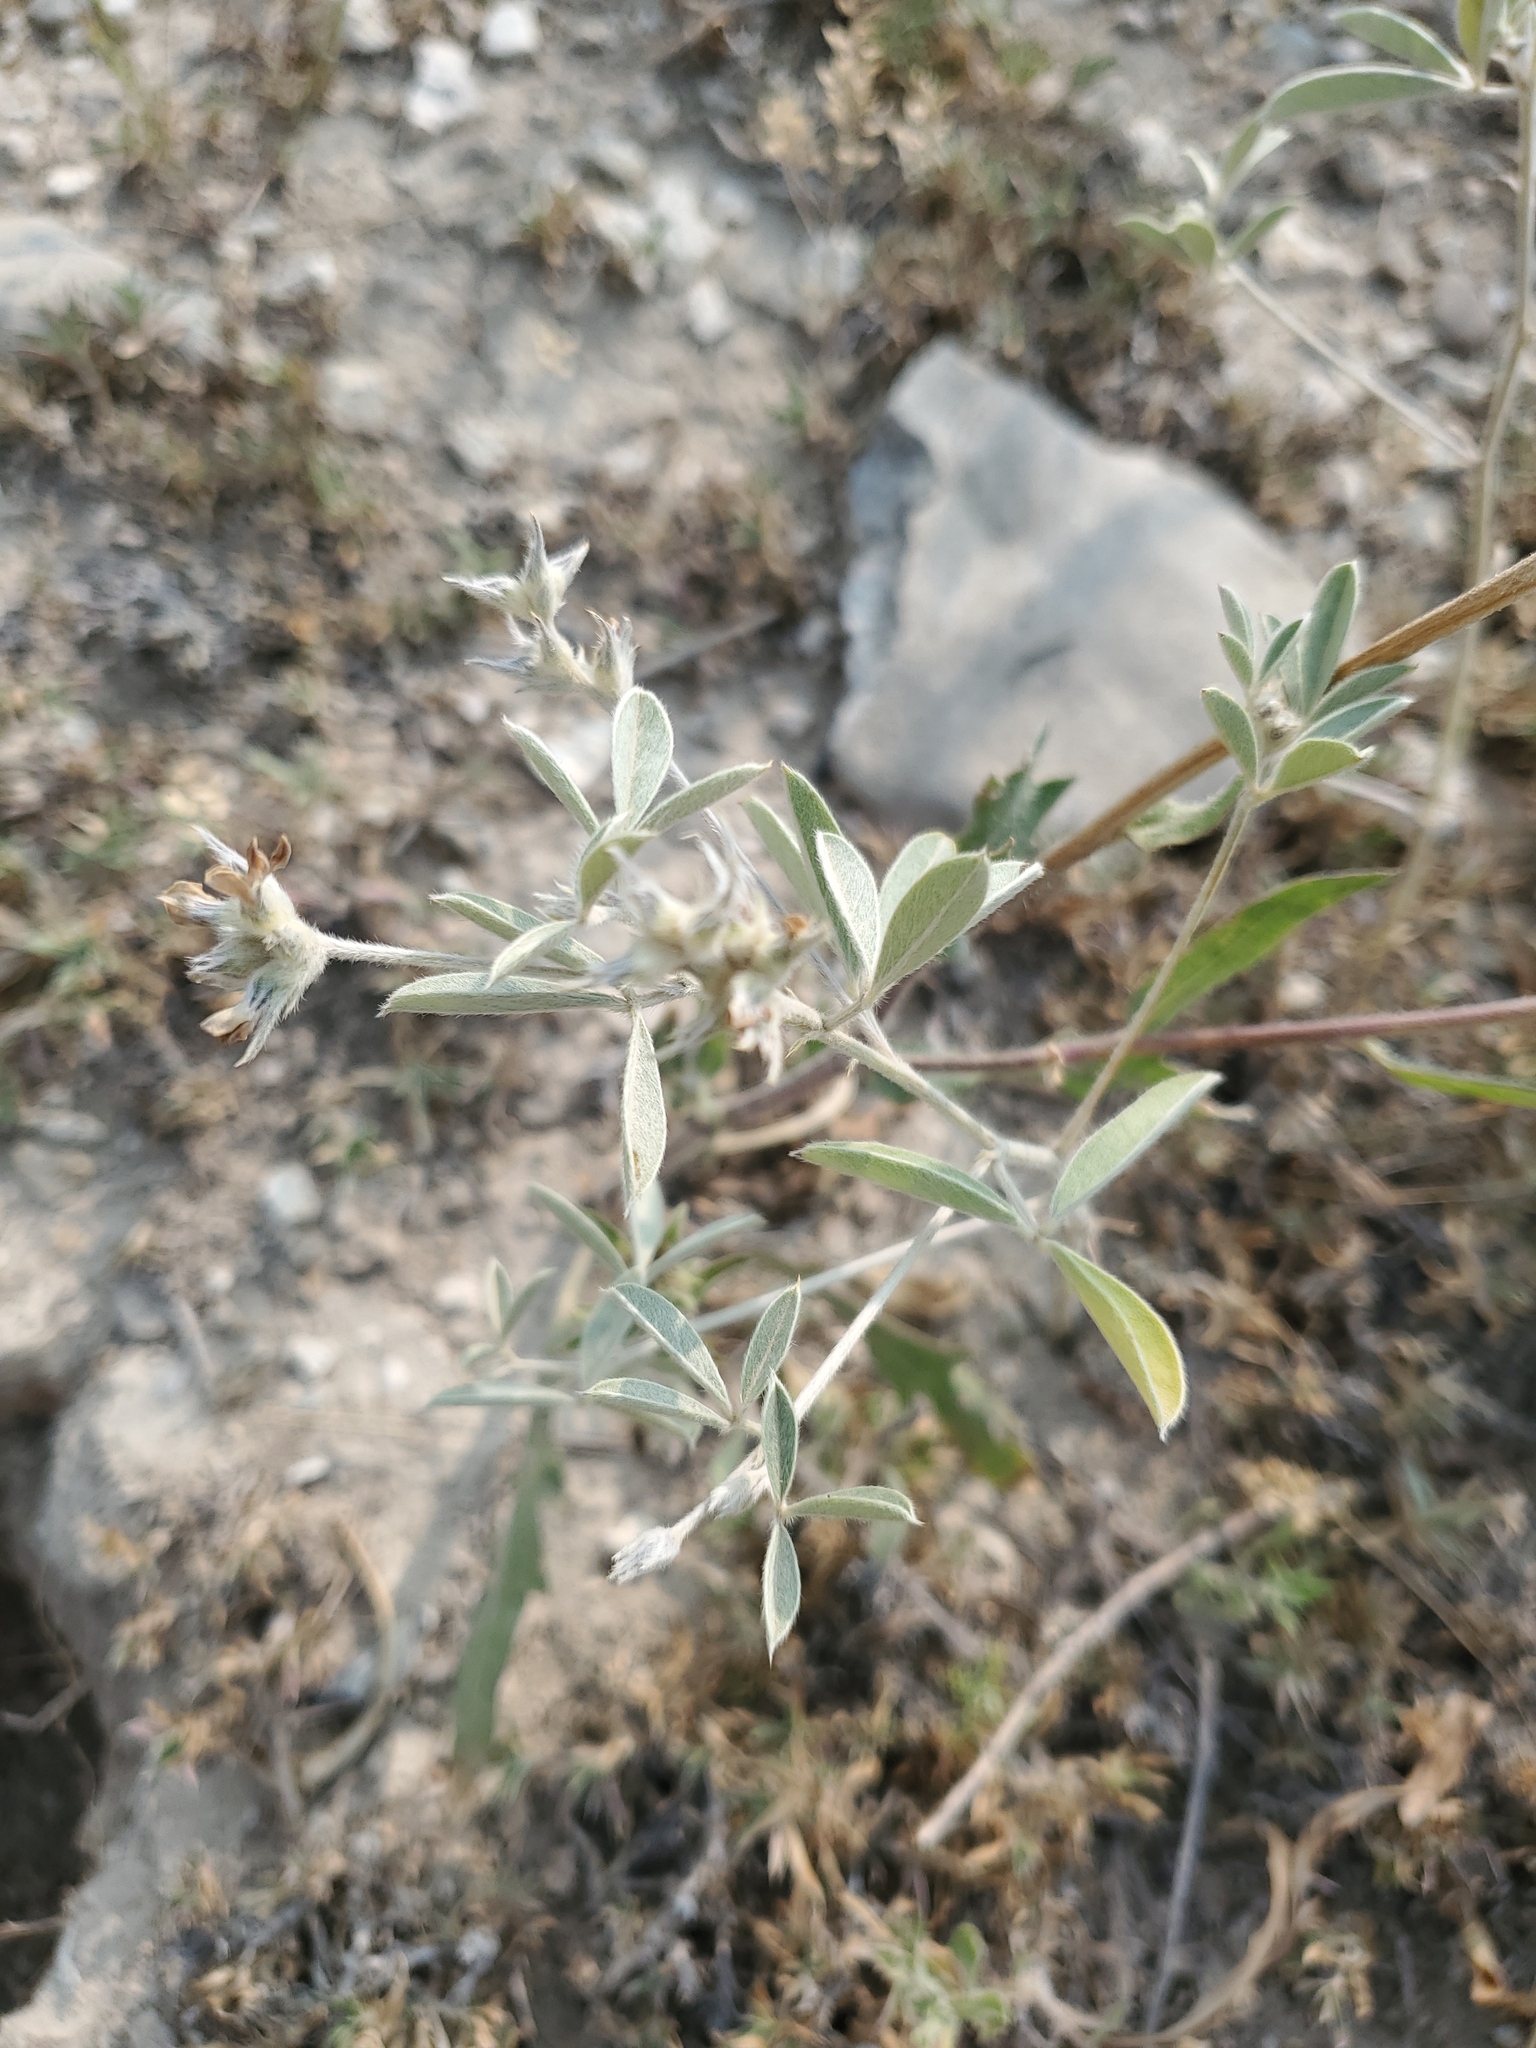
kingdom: Plantae
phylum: Tracheophyta
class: Magnoliopsida
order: Fabales
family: Fabaceae
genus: Pediomelum
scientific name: Pediomelum argophyllum
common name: Silver-leaved indian breadroot
